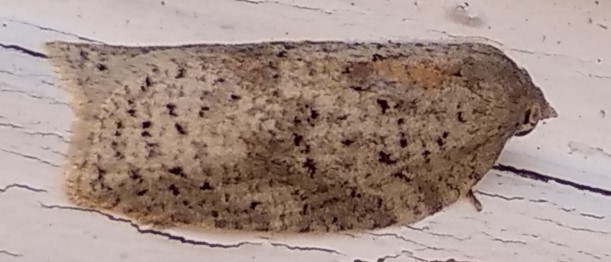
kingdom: Animalia
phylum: Arthropoda
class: Insecta
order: Lepidoptera
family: Tortricidae
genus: Amorbia
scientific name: Amorbia humerosana
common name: White-lined leafroller moth
